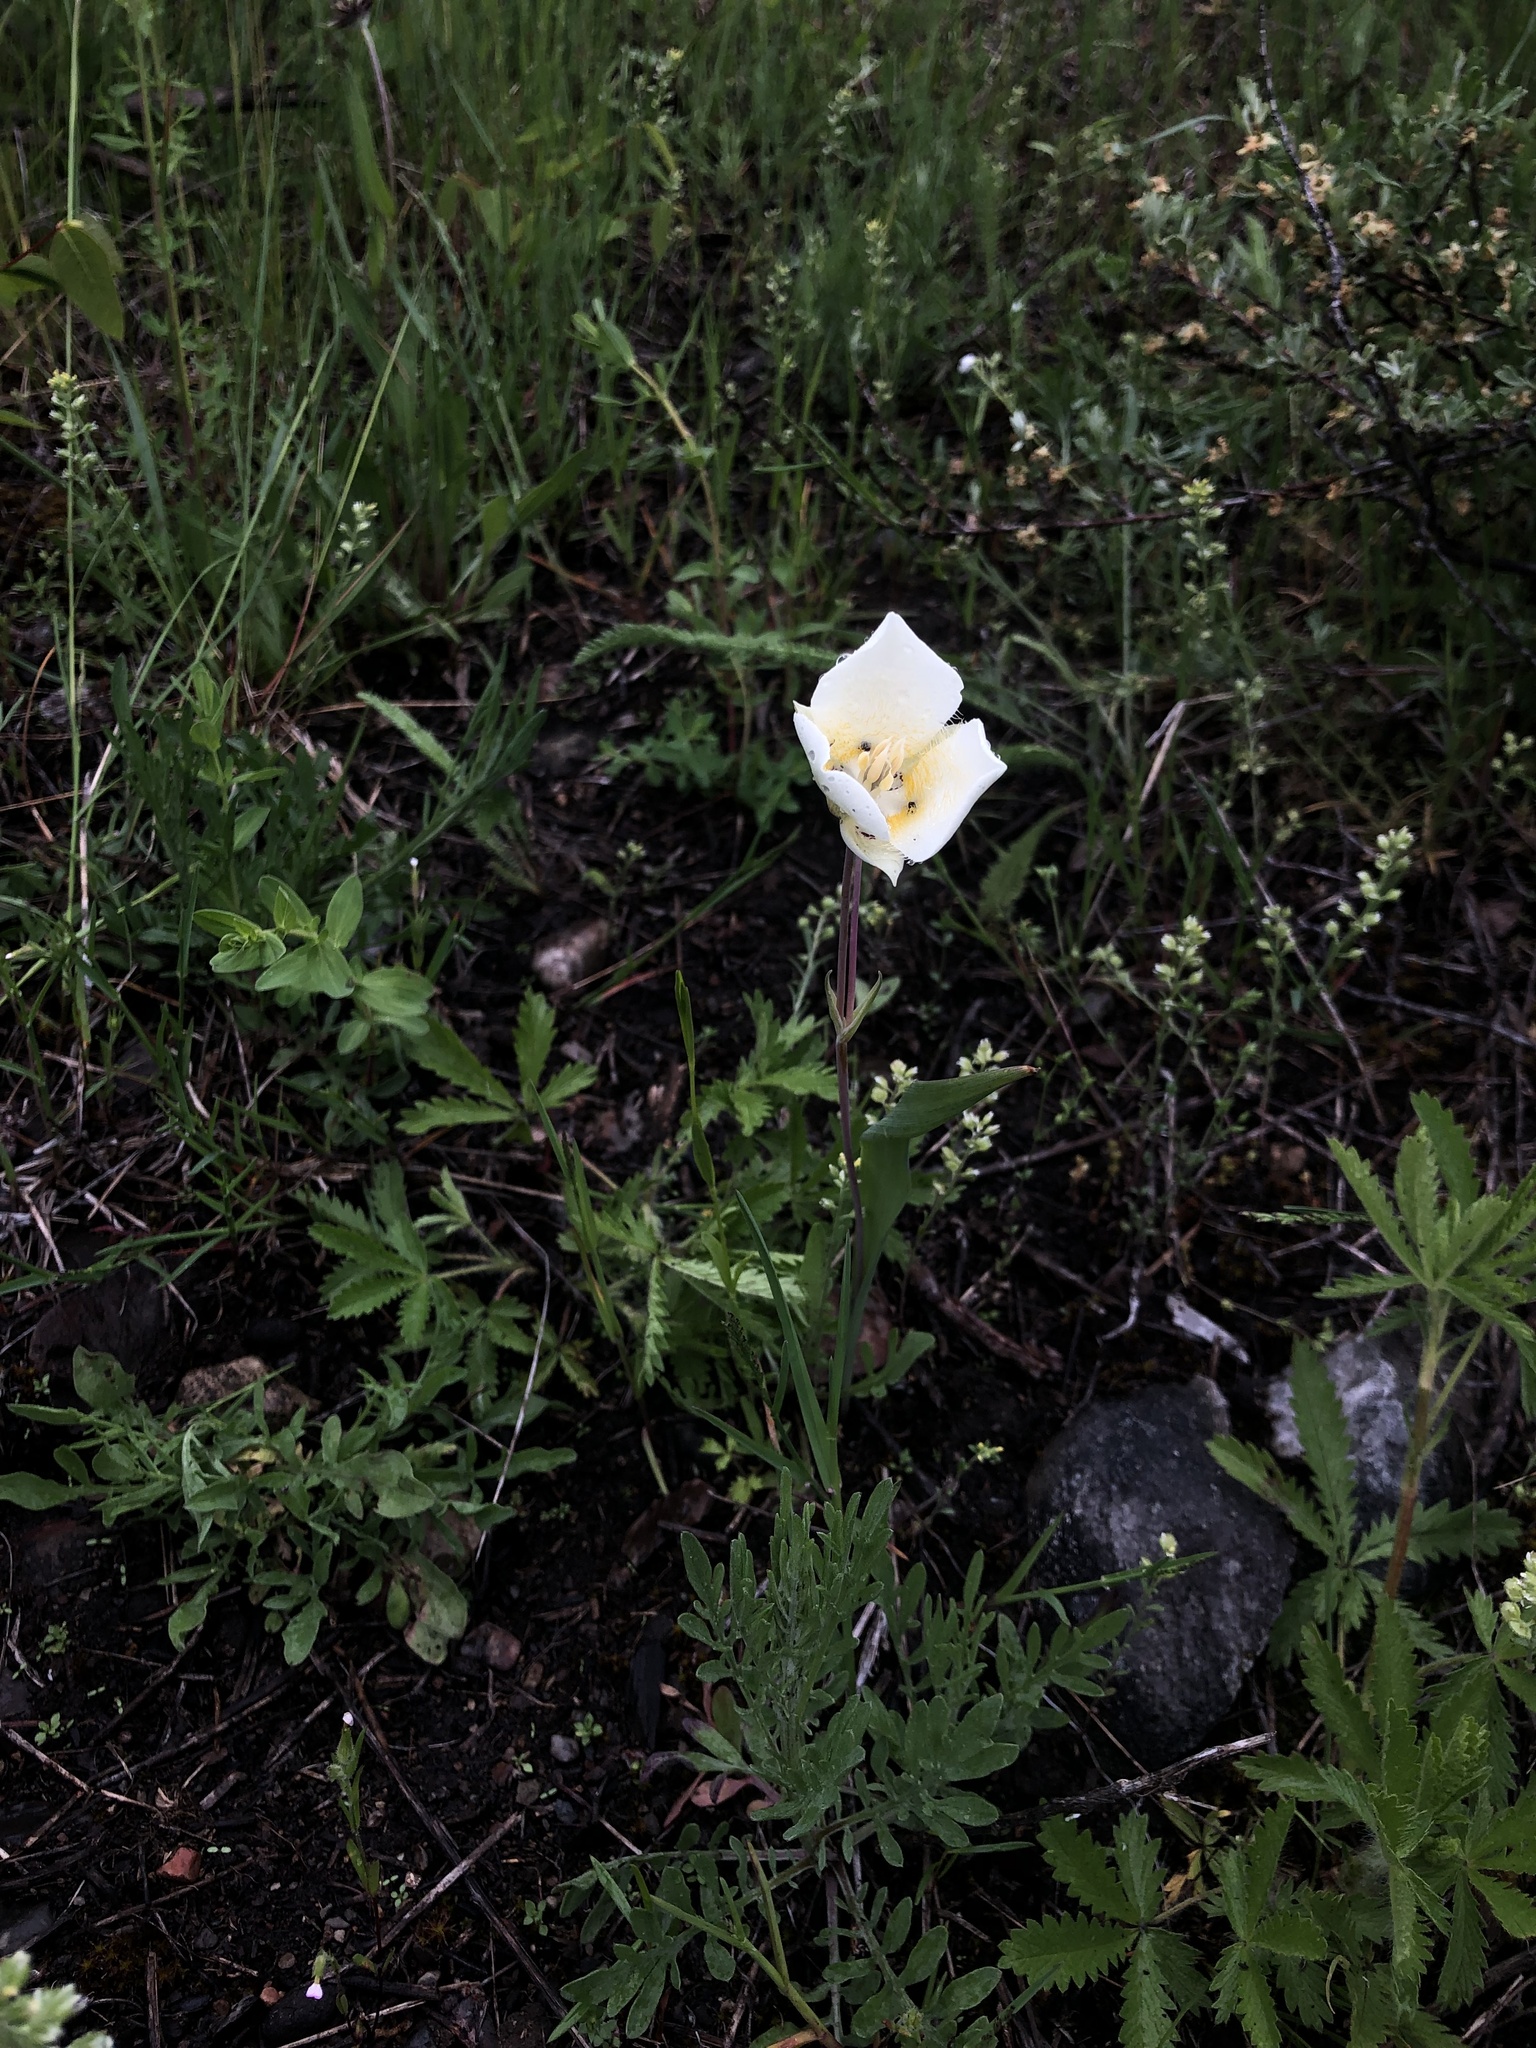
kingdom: Plantae
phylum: Tracheophyta
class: Liliopsida
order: Liliales
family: Liliaceae
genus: Calochortus
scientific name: Calochortus apiculatus
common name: Baker's mariposa lily
